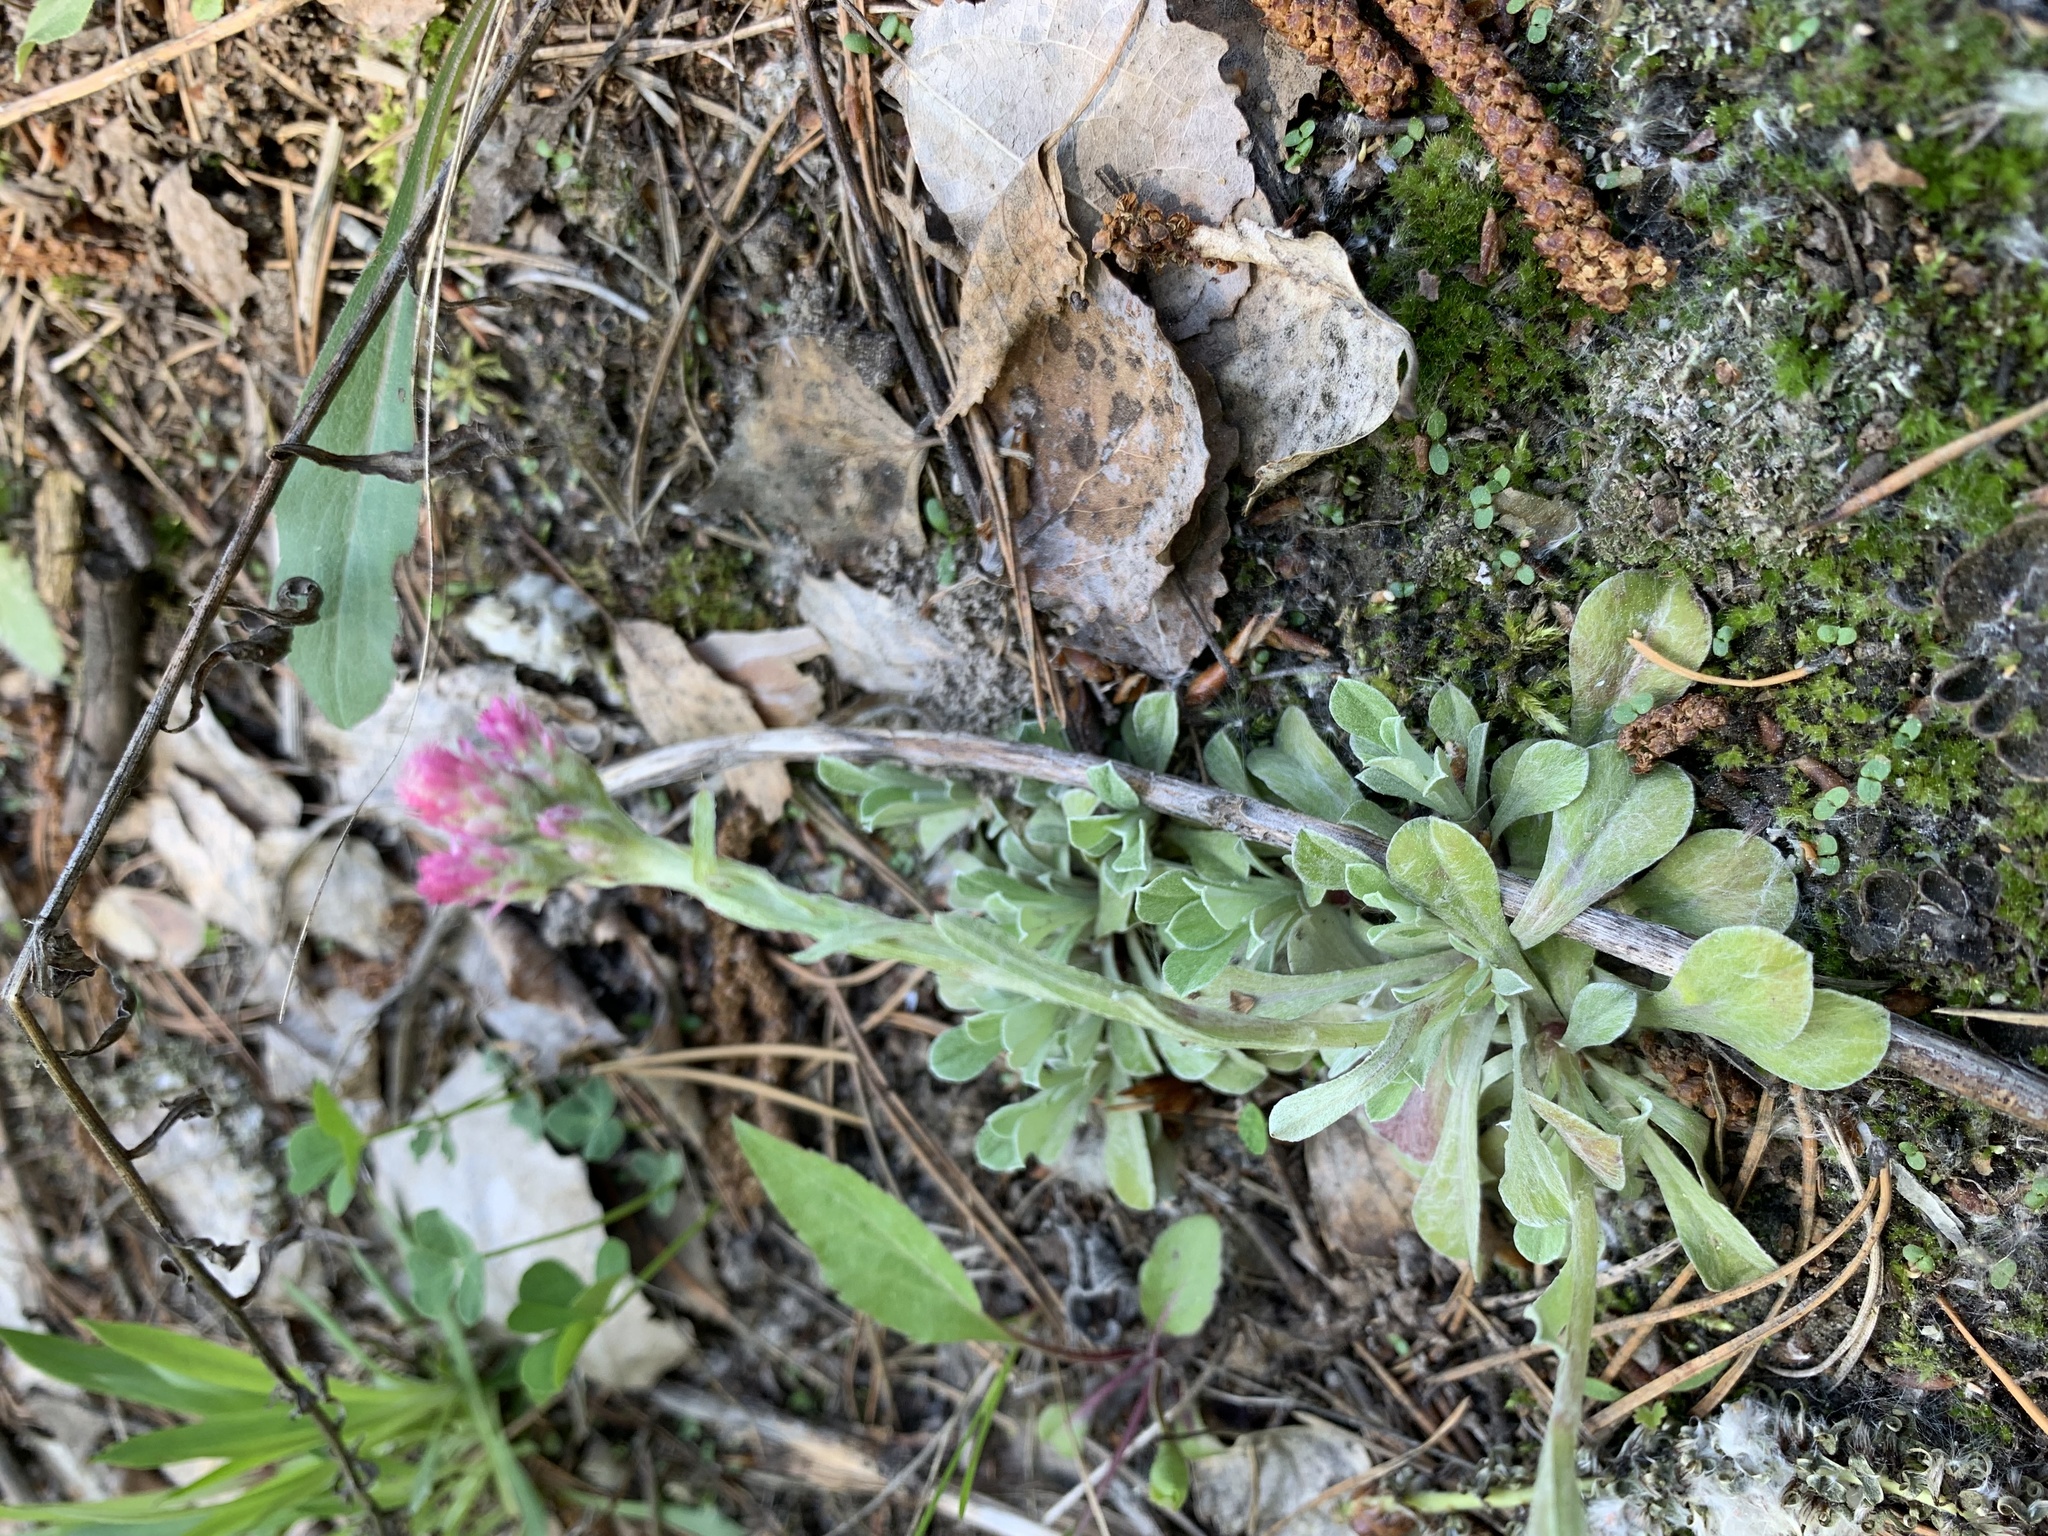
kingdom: Plantae
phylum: Tracheophyta
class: Magnoliopsida
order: Asterales
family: Asteraceae
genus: Antennaria
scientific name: Antennaria dioica
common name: Mountain everlasting
